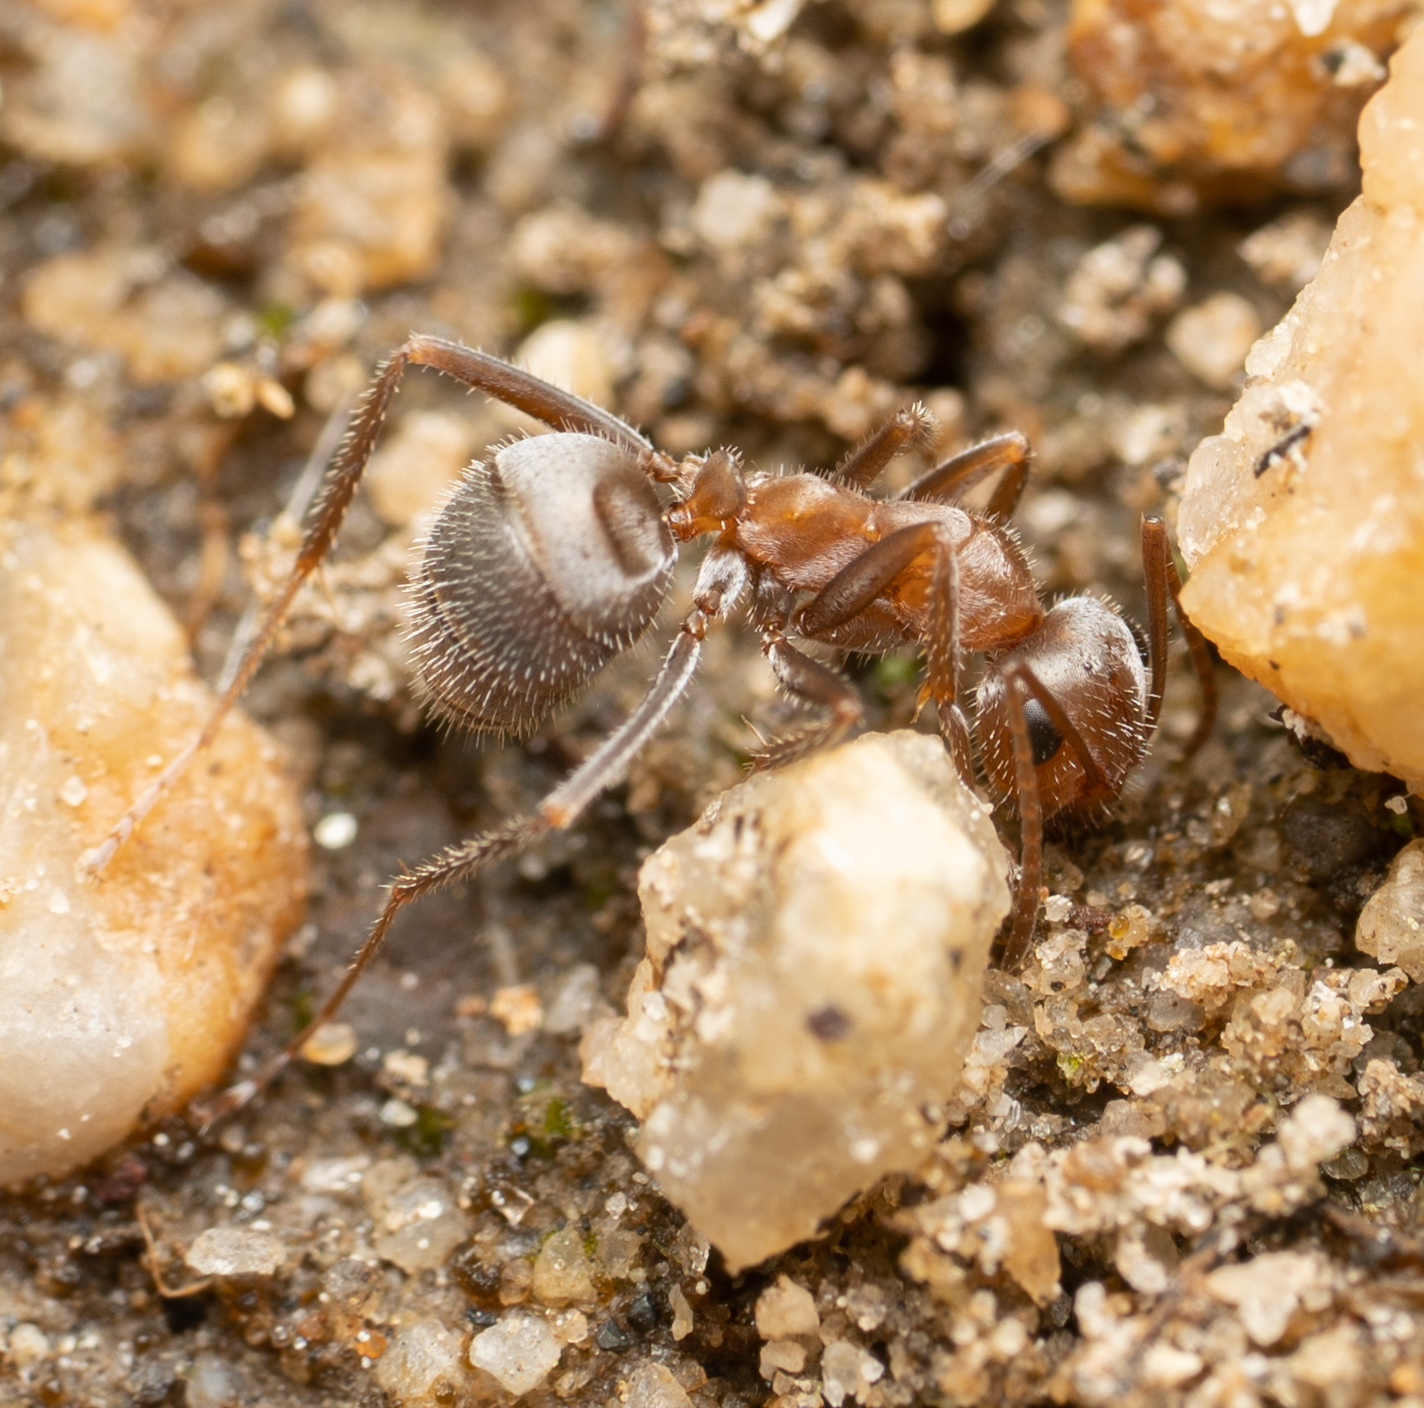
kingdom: Animalia
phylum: Arthropoda
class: Insecta
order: Hymenoptera
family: Formicidae
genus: Formica
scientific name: Formica francoeuri
